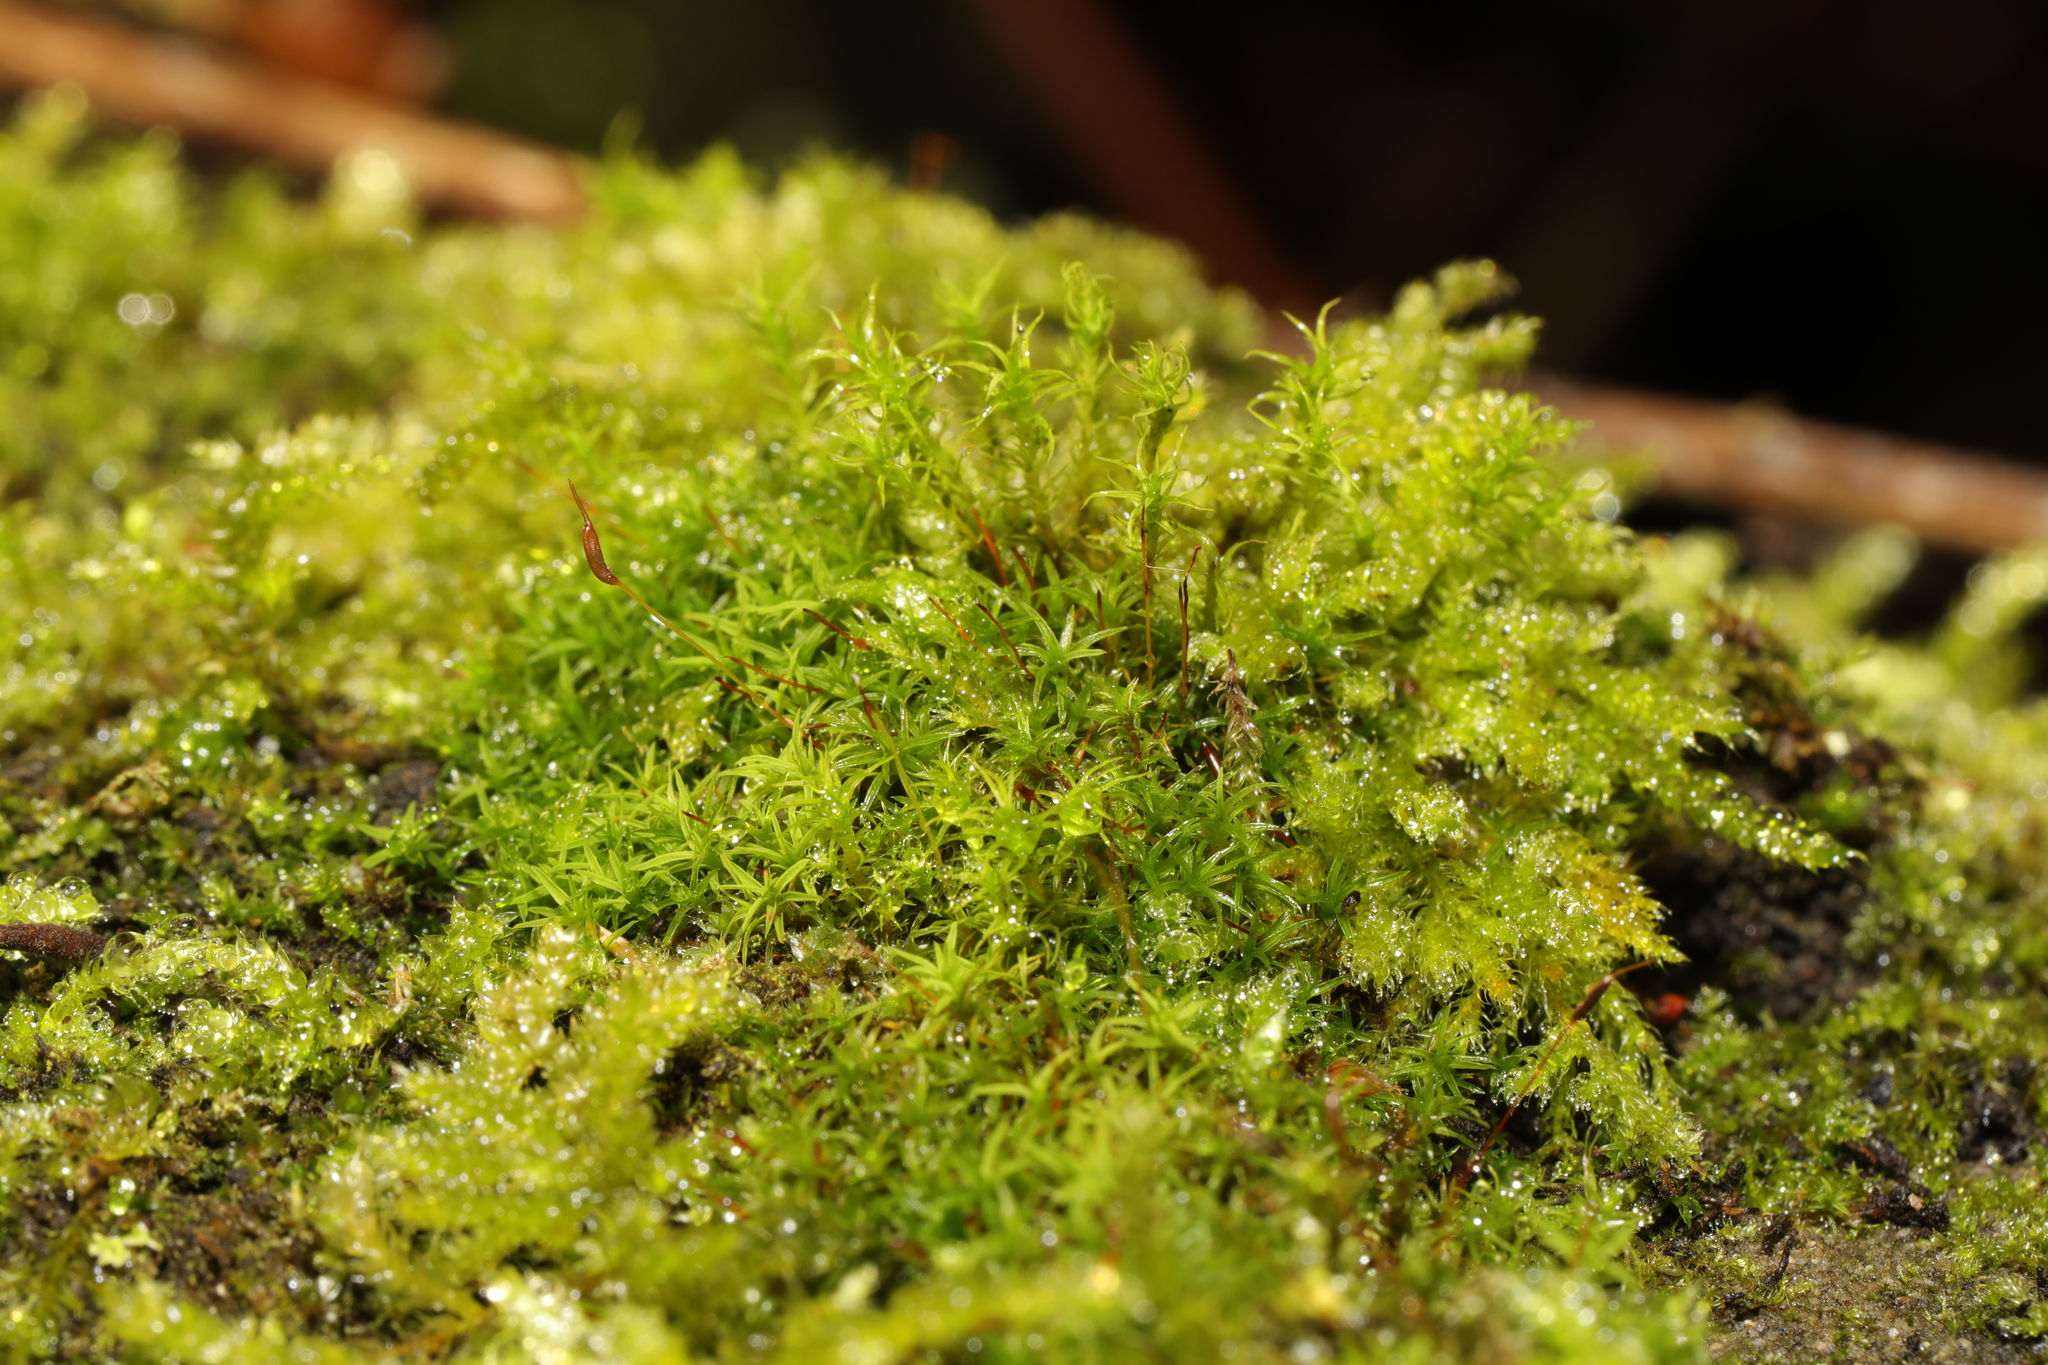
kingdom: Plantae
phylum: Bryophyta
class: Bryopsida
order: Pottiales
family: Pottiaceae
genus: Vinealobryum
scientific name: Vinealobryum insulanum
